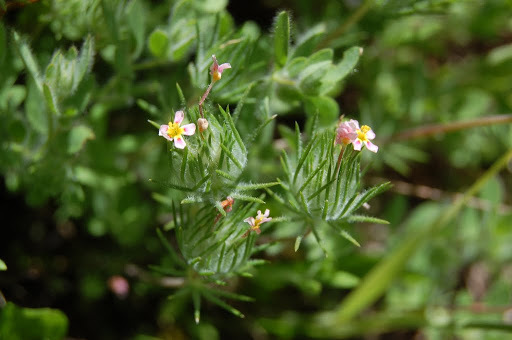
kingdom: Plantae
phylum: Tracheophyta
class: Magnoliopsida
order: Ericales
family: Polemoniaceae
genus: Leptosiphon
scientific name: Leptosiphon ciliatus
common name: Whiskerbrush
